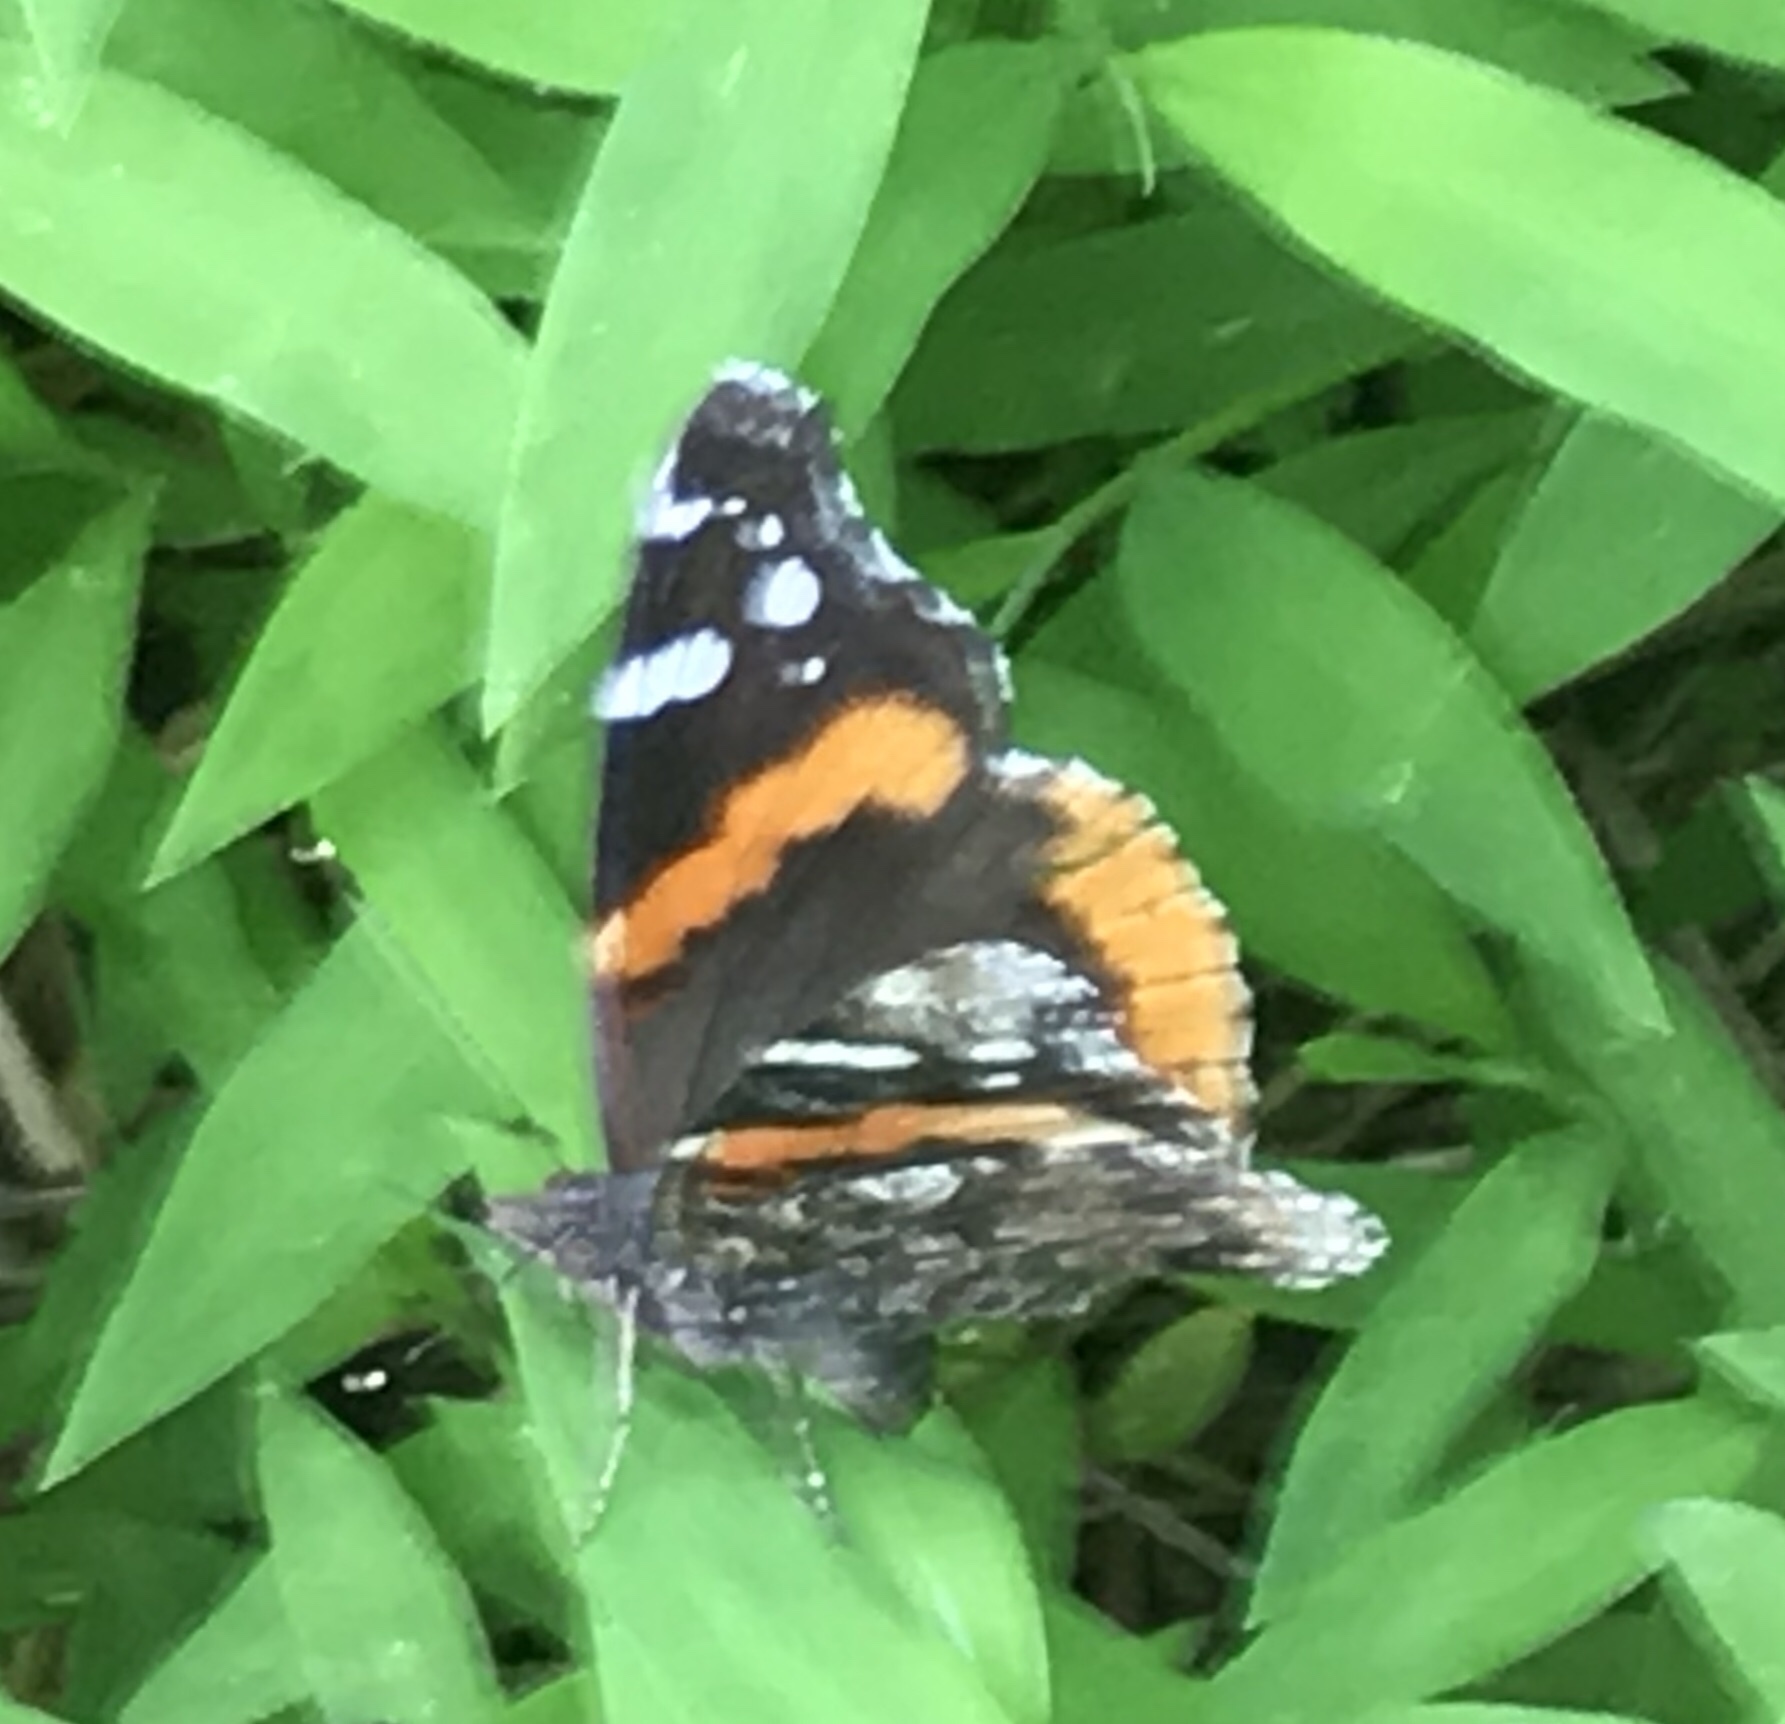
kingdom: Animalia
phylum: Arthropoda
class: Insecta
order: Lepidoptera
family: Nymphalidae
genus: Vanessa
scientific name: Vanessa atalanta
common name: Red admiral
